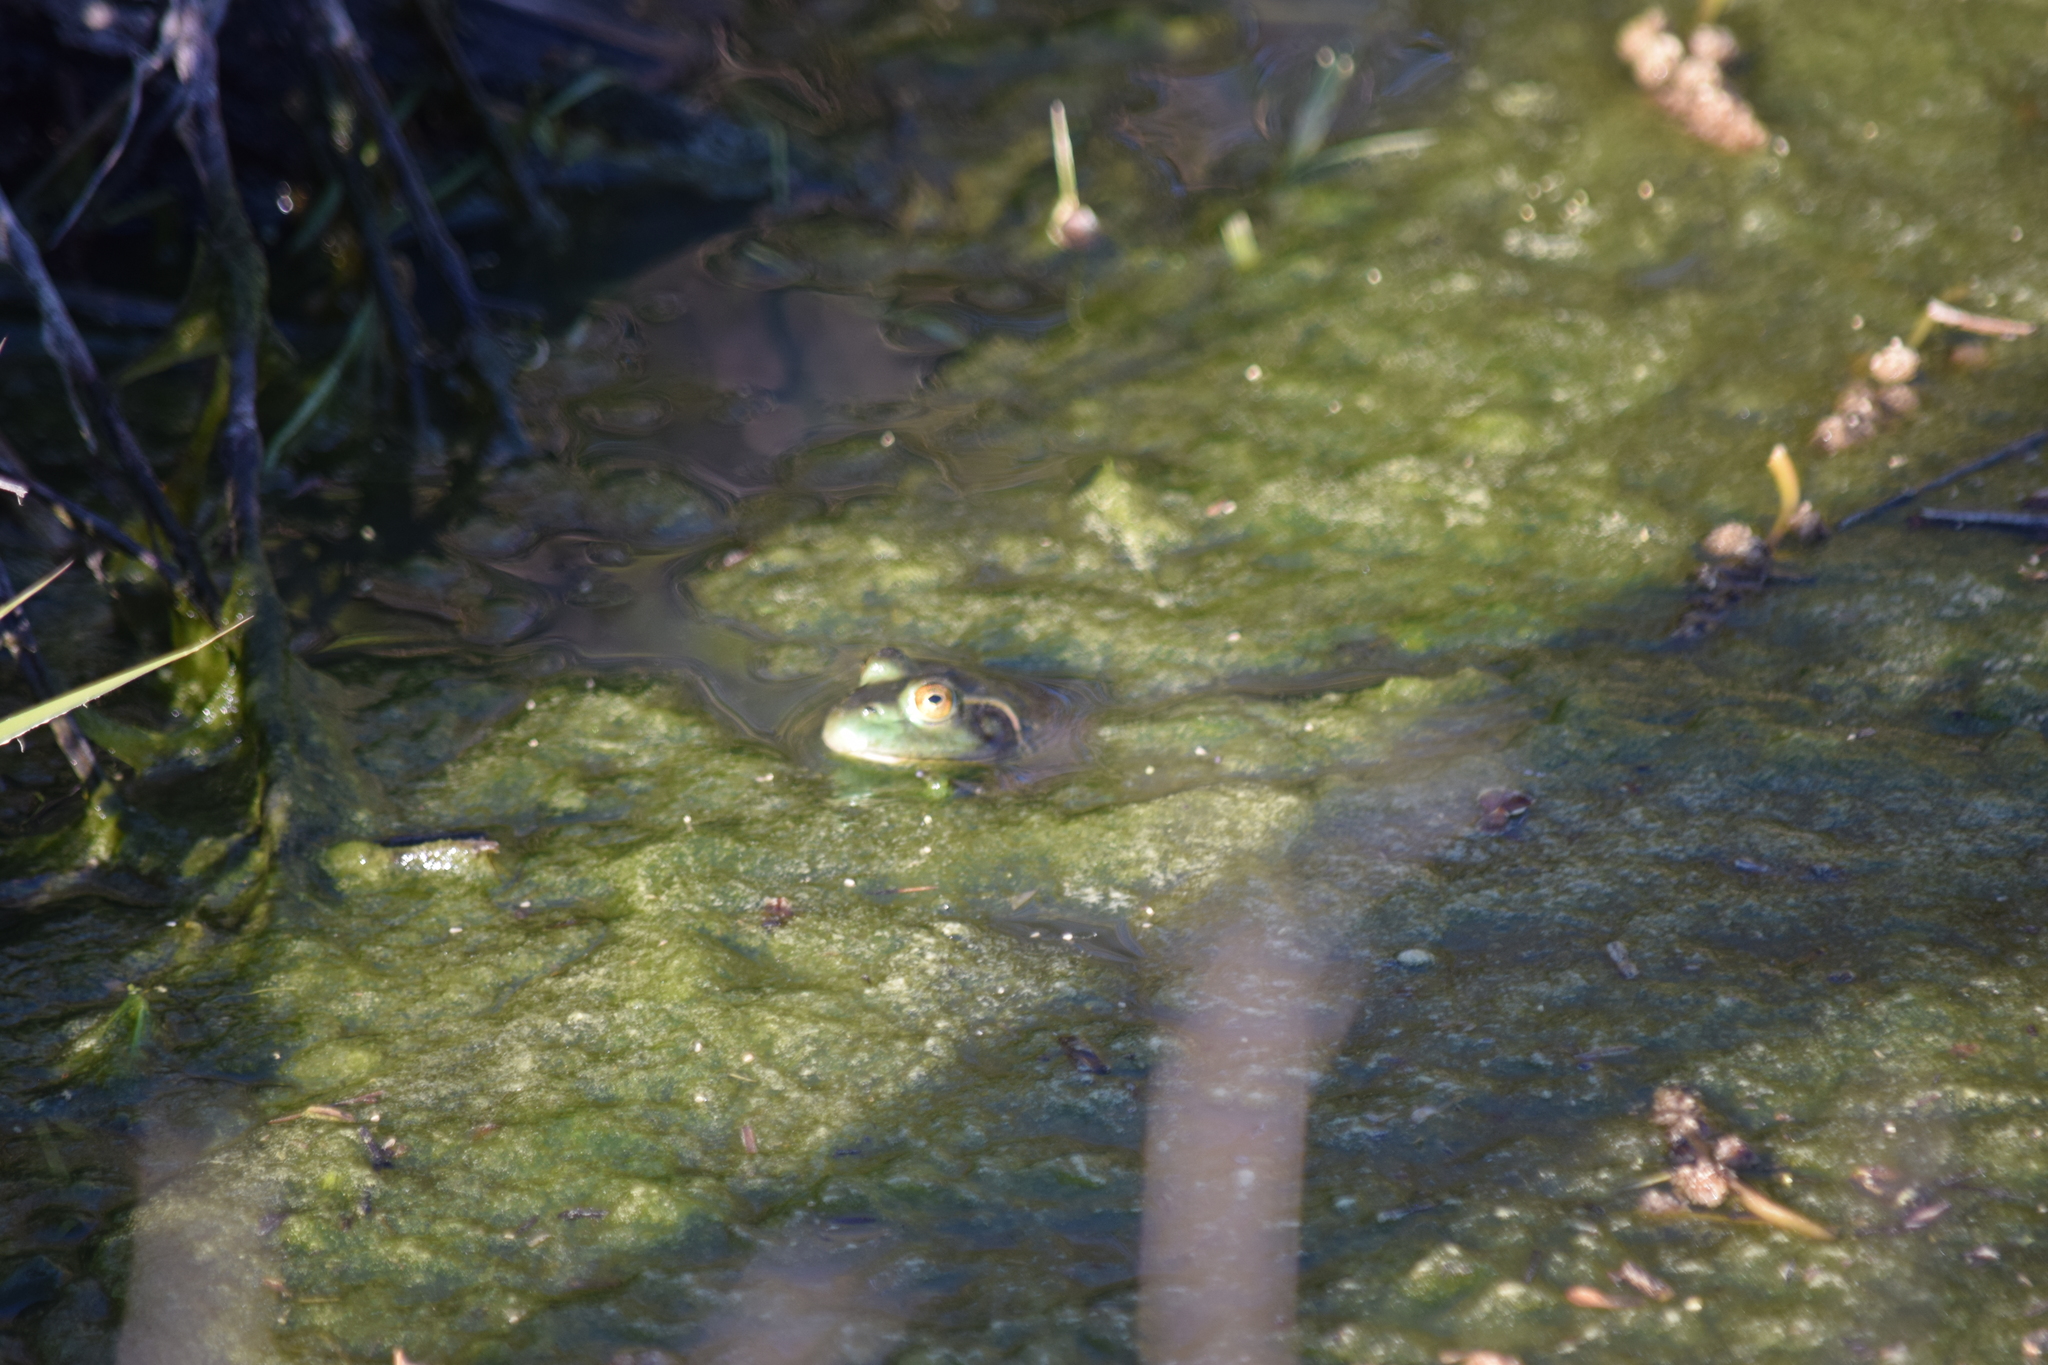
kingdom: Animalia
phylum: Chordata
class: Amphibia
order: Anura
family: Ranidae
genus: Lithobates
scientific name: Lithobates catesbeianus
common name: American bullfrog
